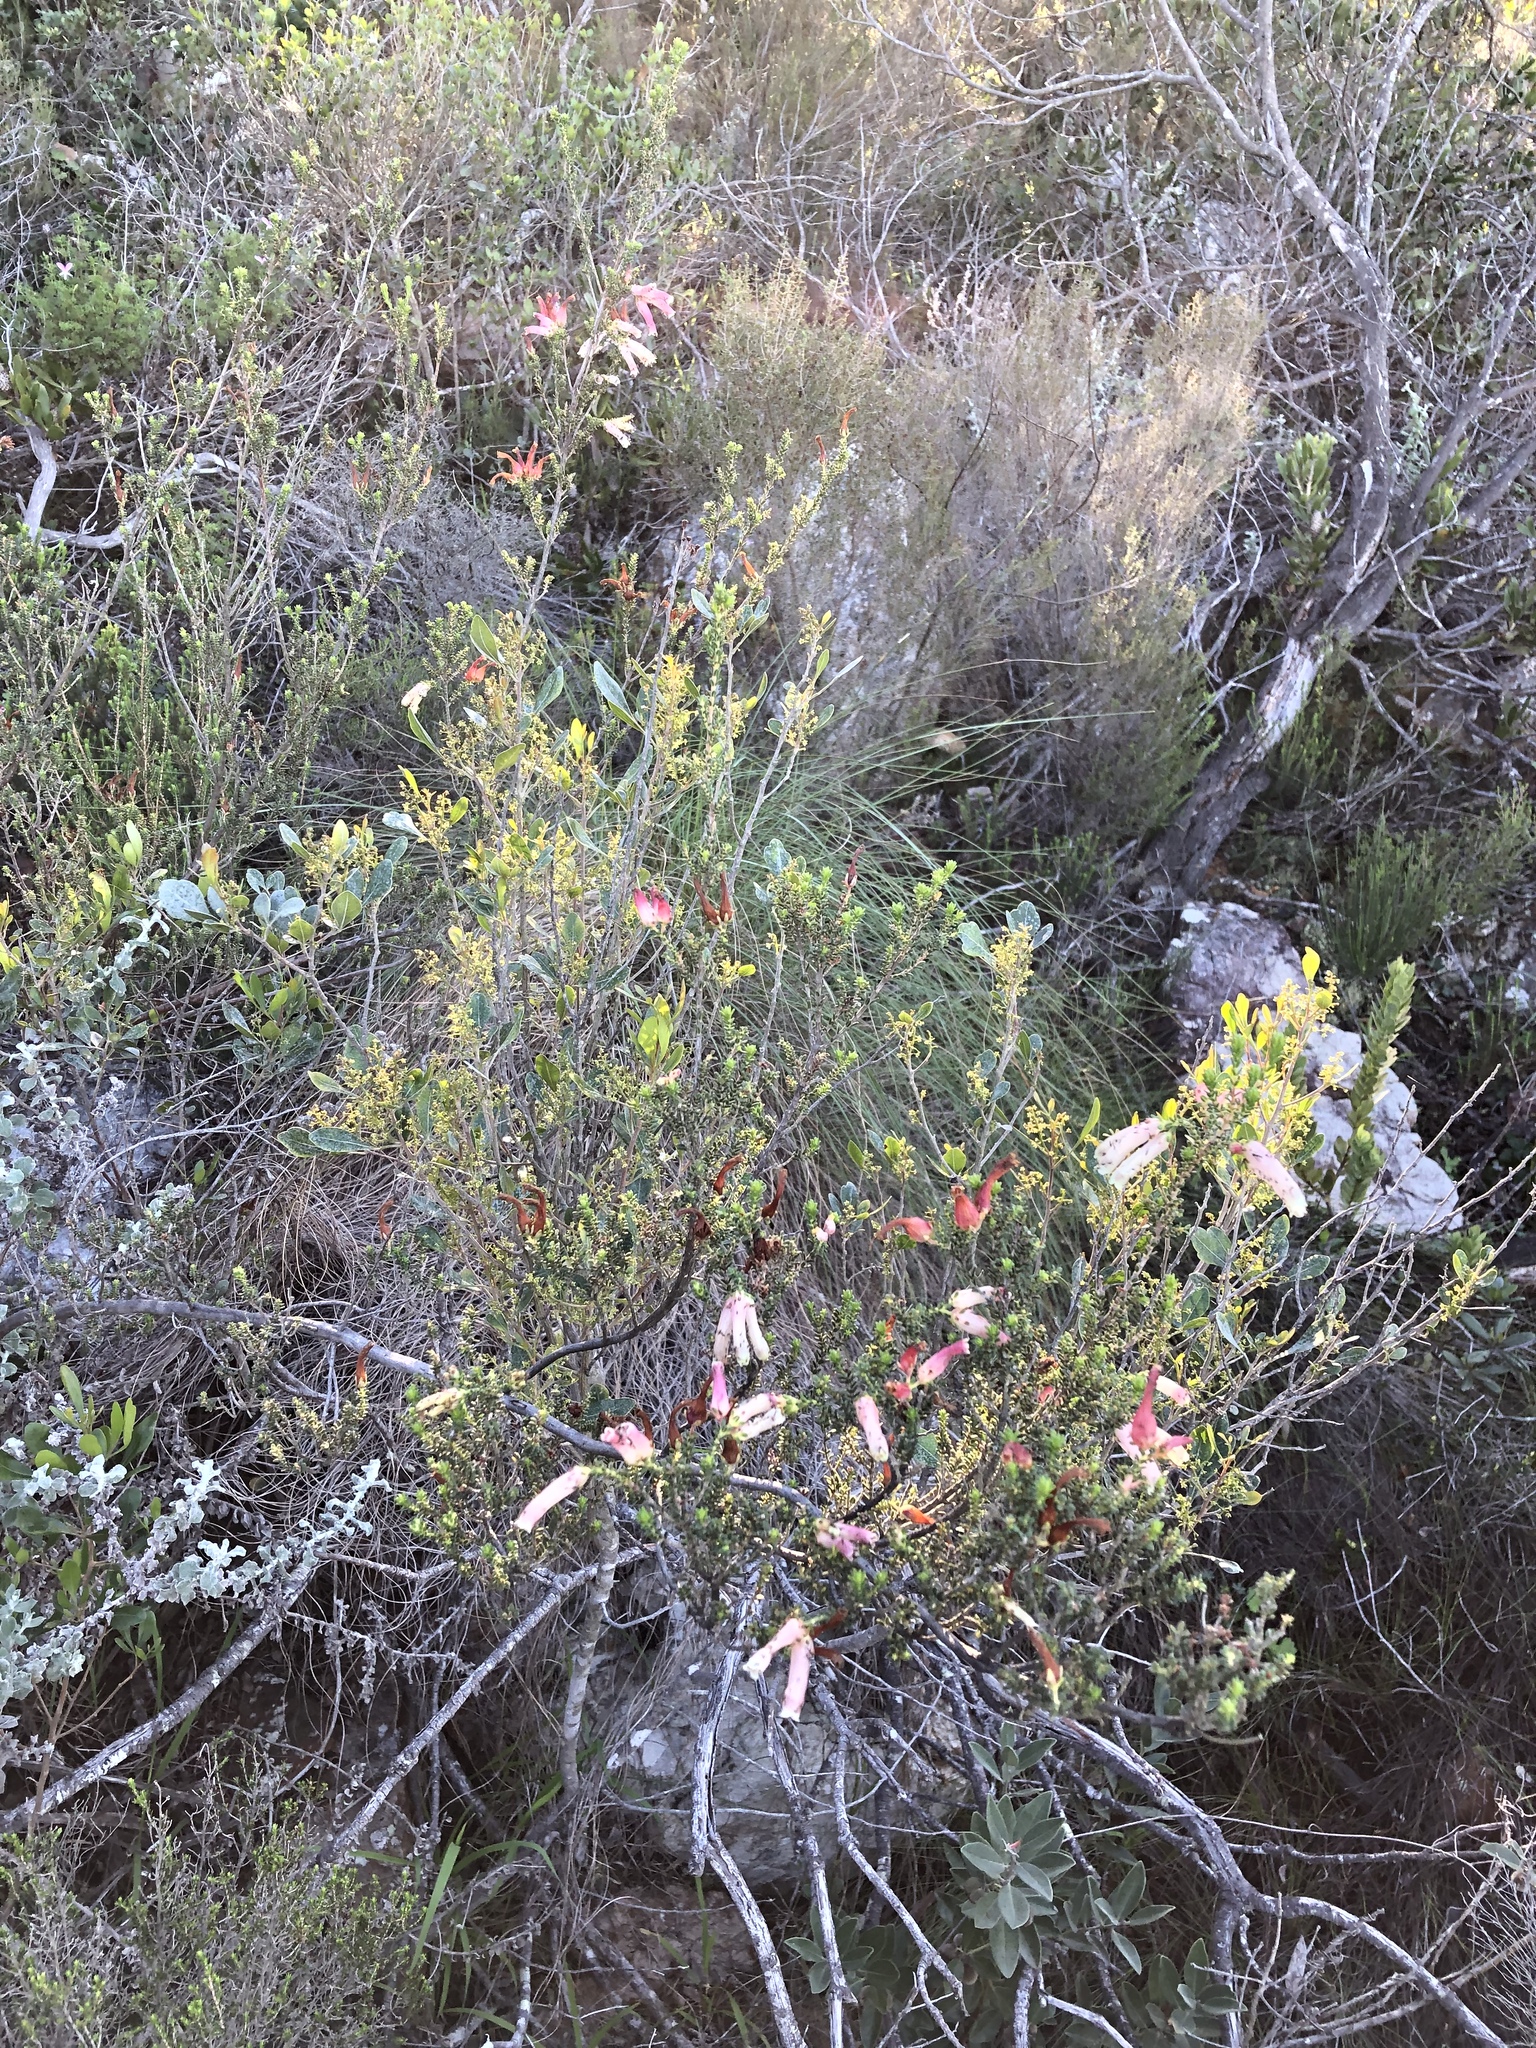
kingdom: Plantae
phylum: Tracheophyta
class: Magnoliopsida
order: Ericales
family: Ericaceae
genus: Erica
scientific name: Erica versicolor
